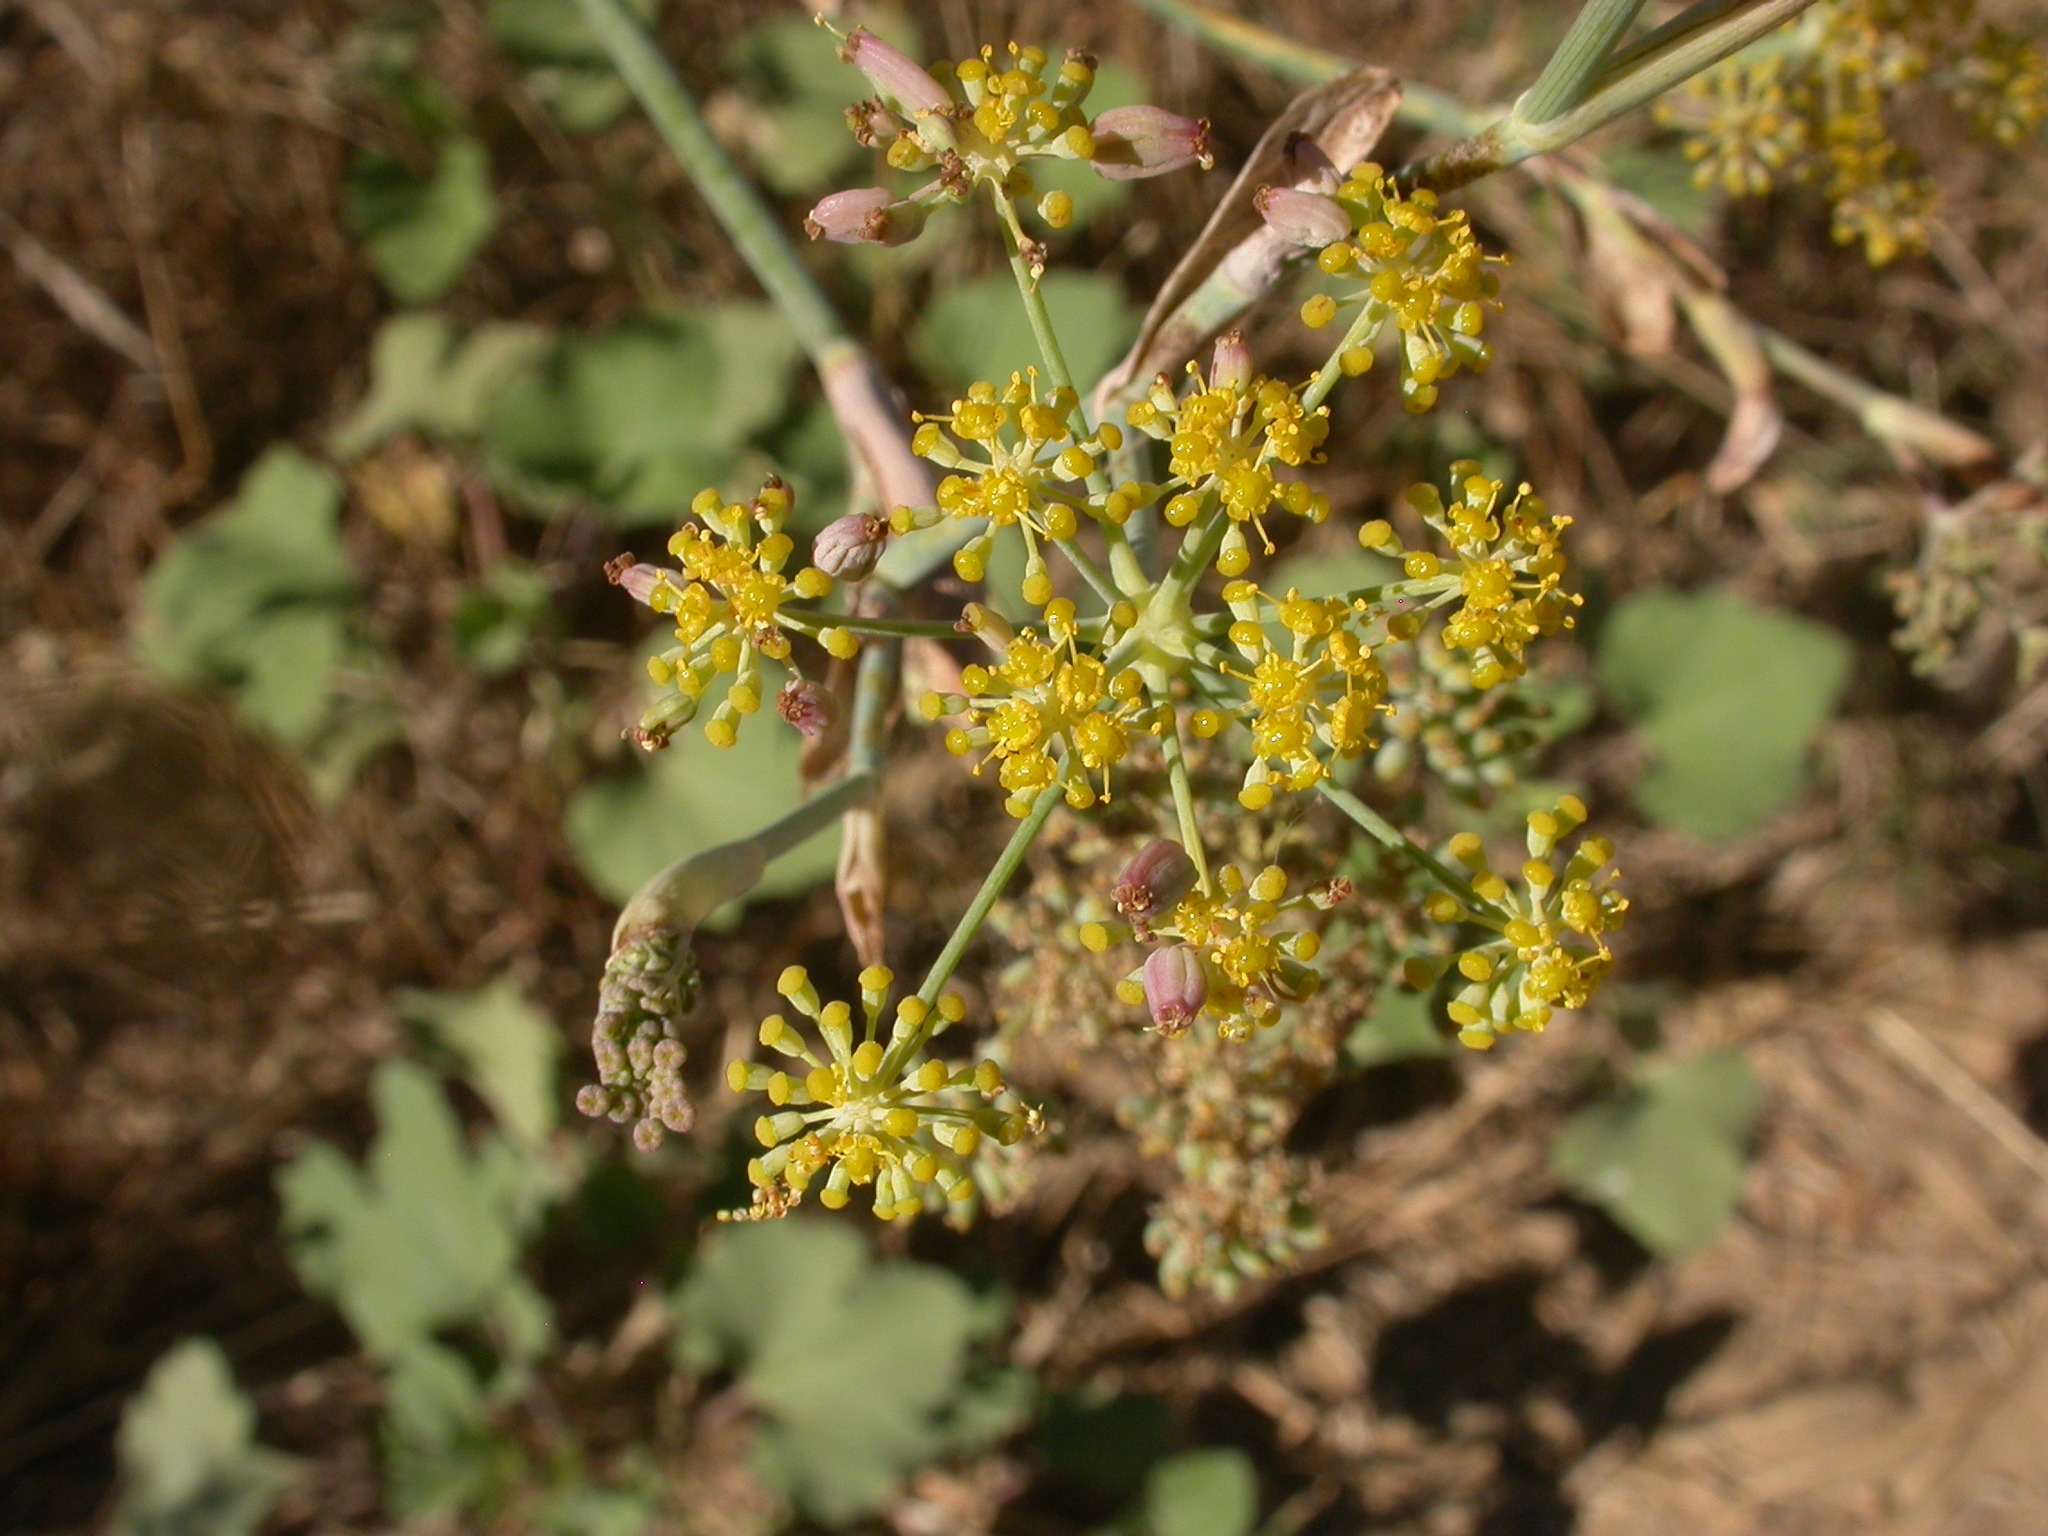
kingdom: Plantae
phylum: Tracheophyta
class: Magnoliopsida
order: Apiales
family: Apiaceae
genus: Foeniculum
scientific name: Foeniculum vulgare
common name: Fennel
